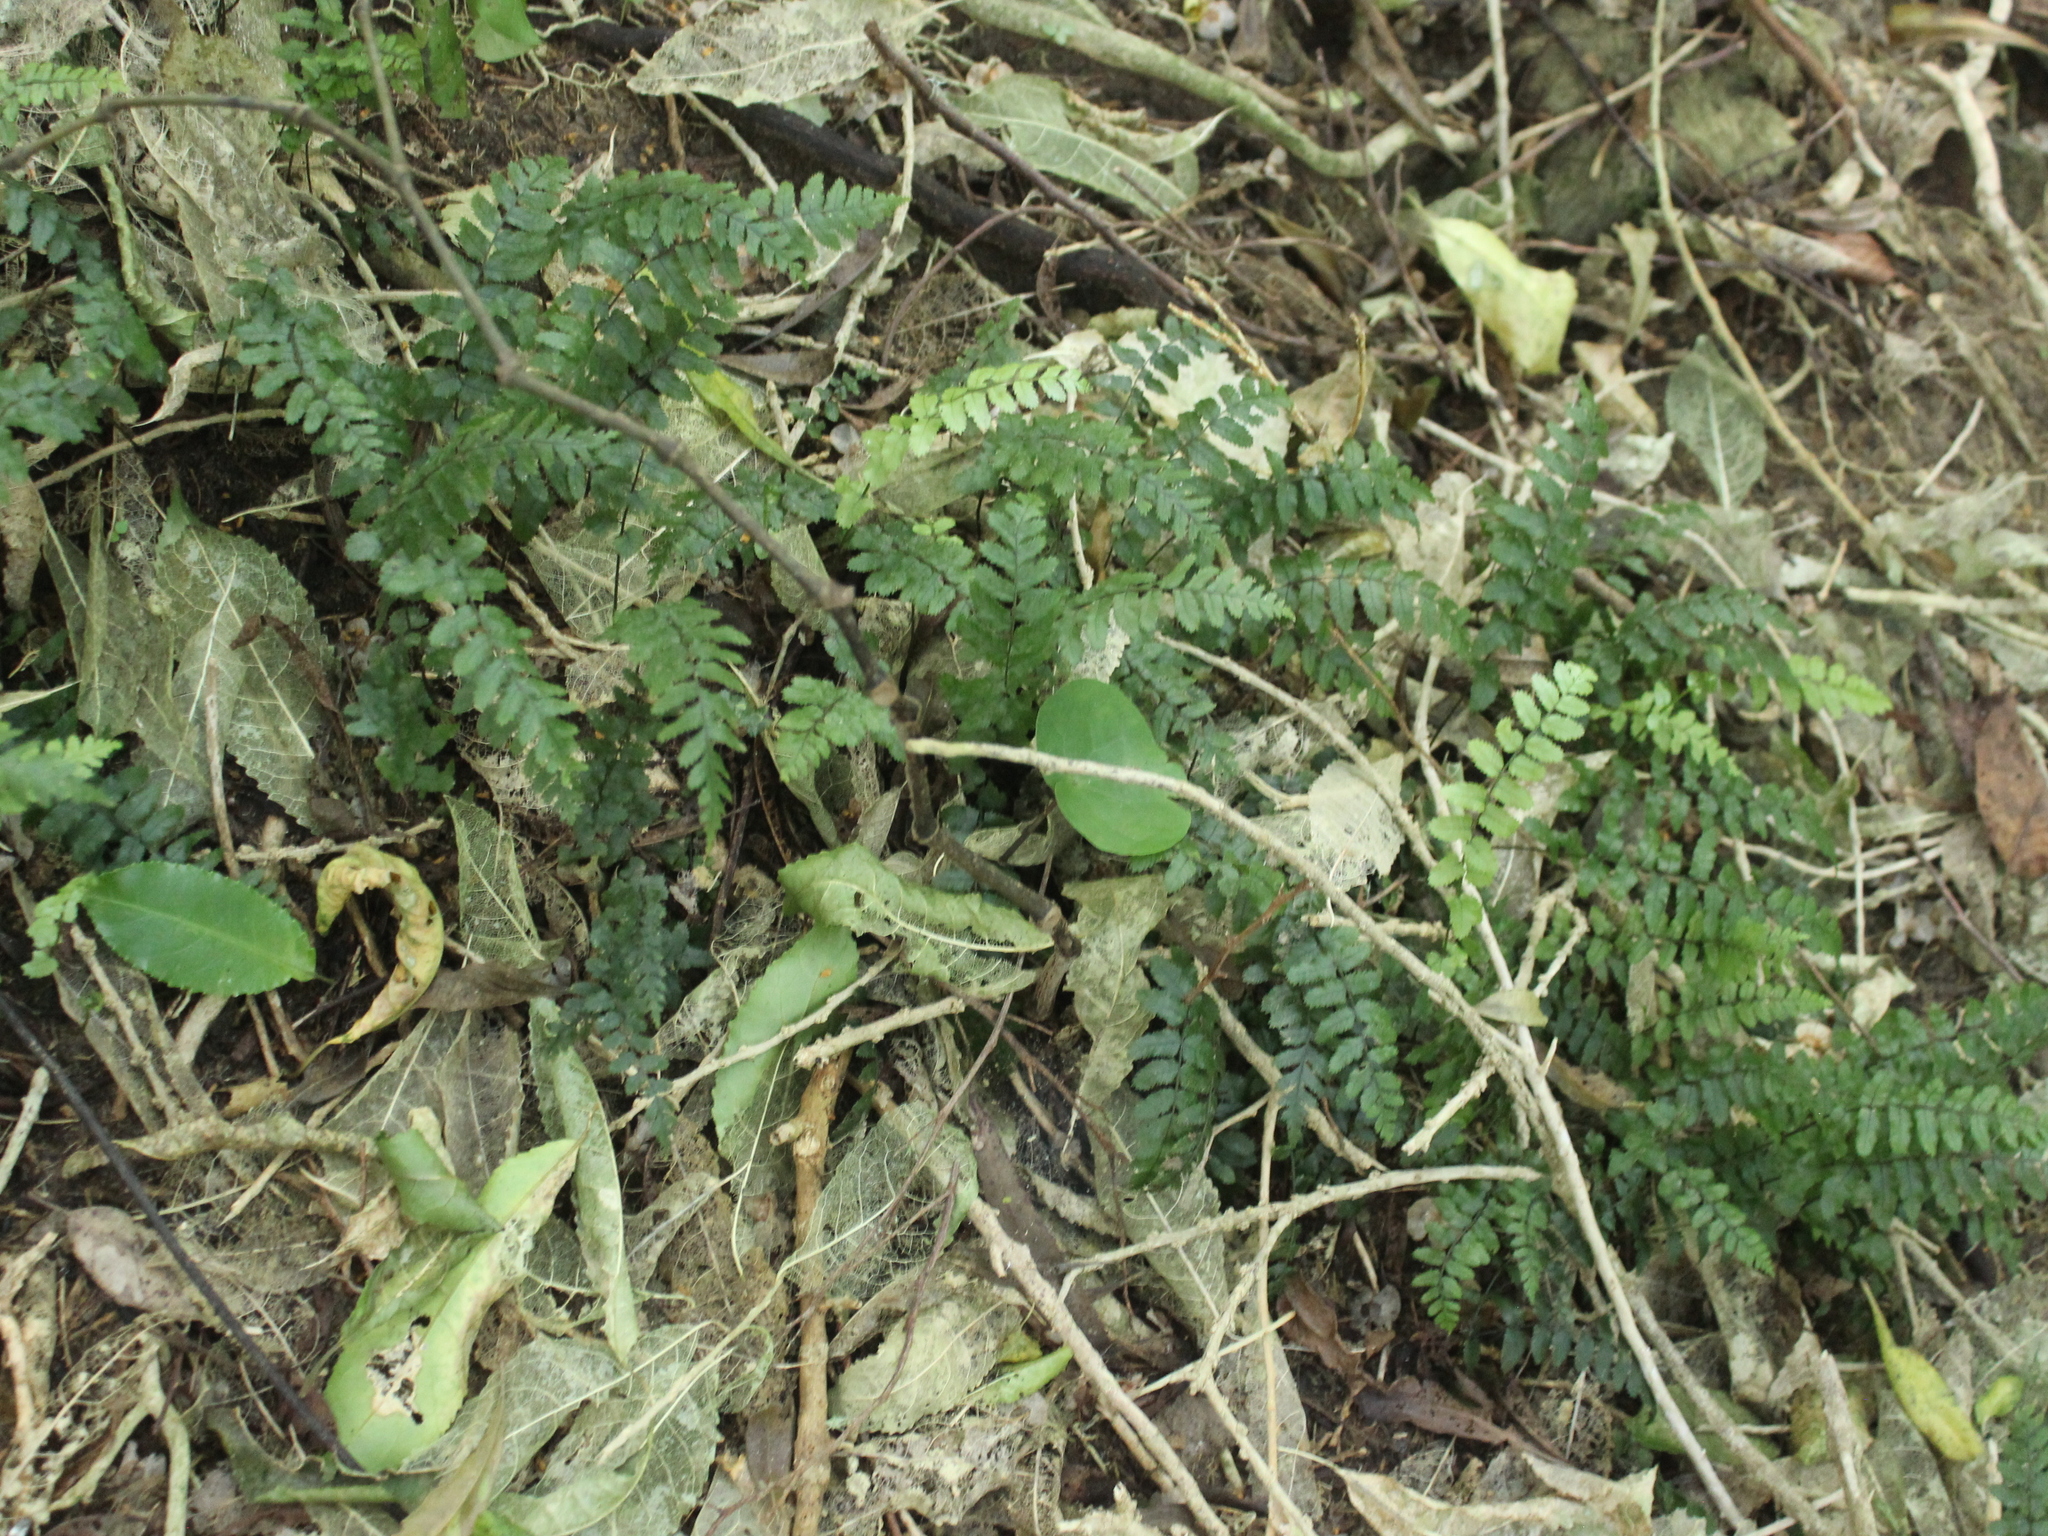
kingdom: Plantae
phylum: Tracheophyta
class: Polypodiopsida
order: Polypodiales
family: Blechnaceae
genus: Icarus
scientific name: Icarus filiformis
